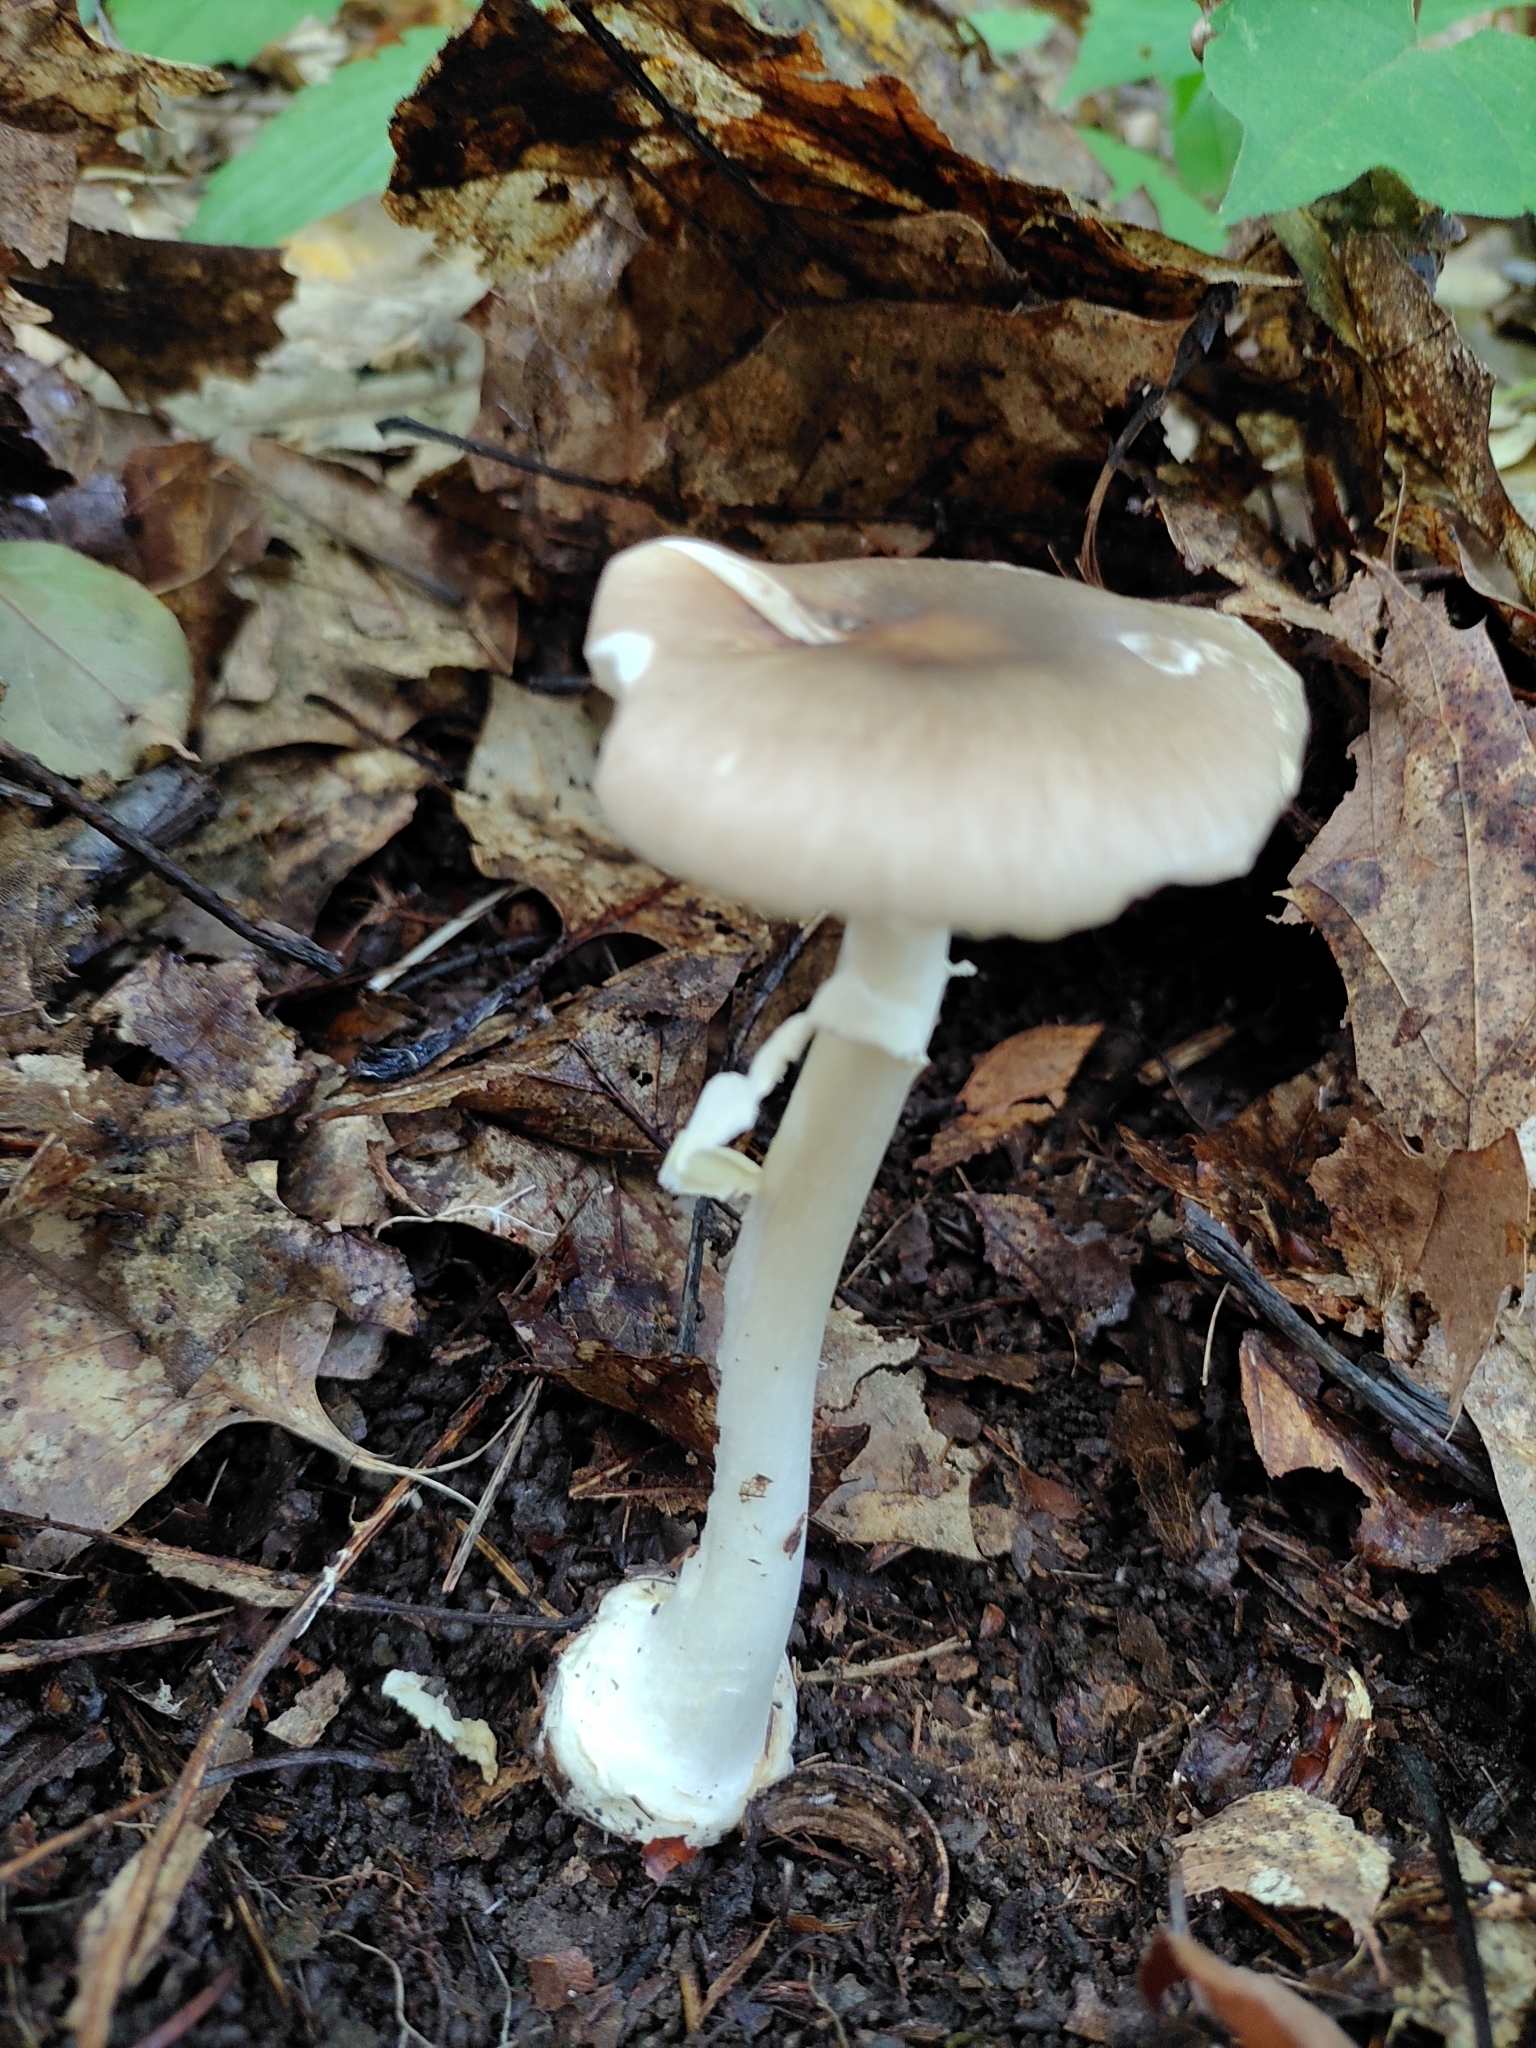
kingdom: Fungi
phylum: Basidiomycota
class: Agaricomycetes
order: Agaricales
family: Amanitaceae
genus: Amanita
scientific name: Amanita solaniolens
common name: Old potato amanita
